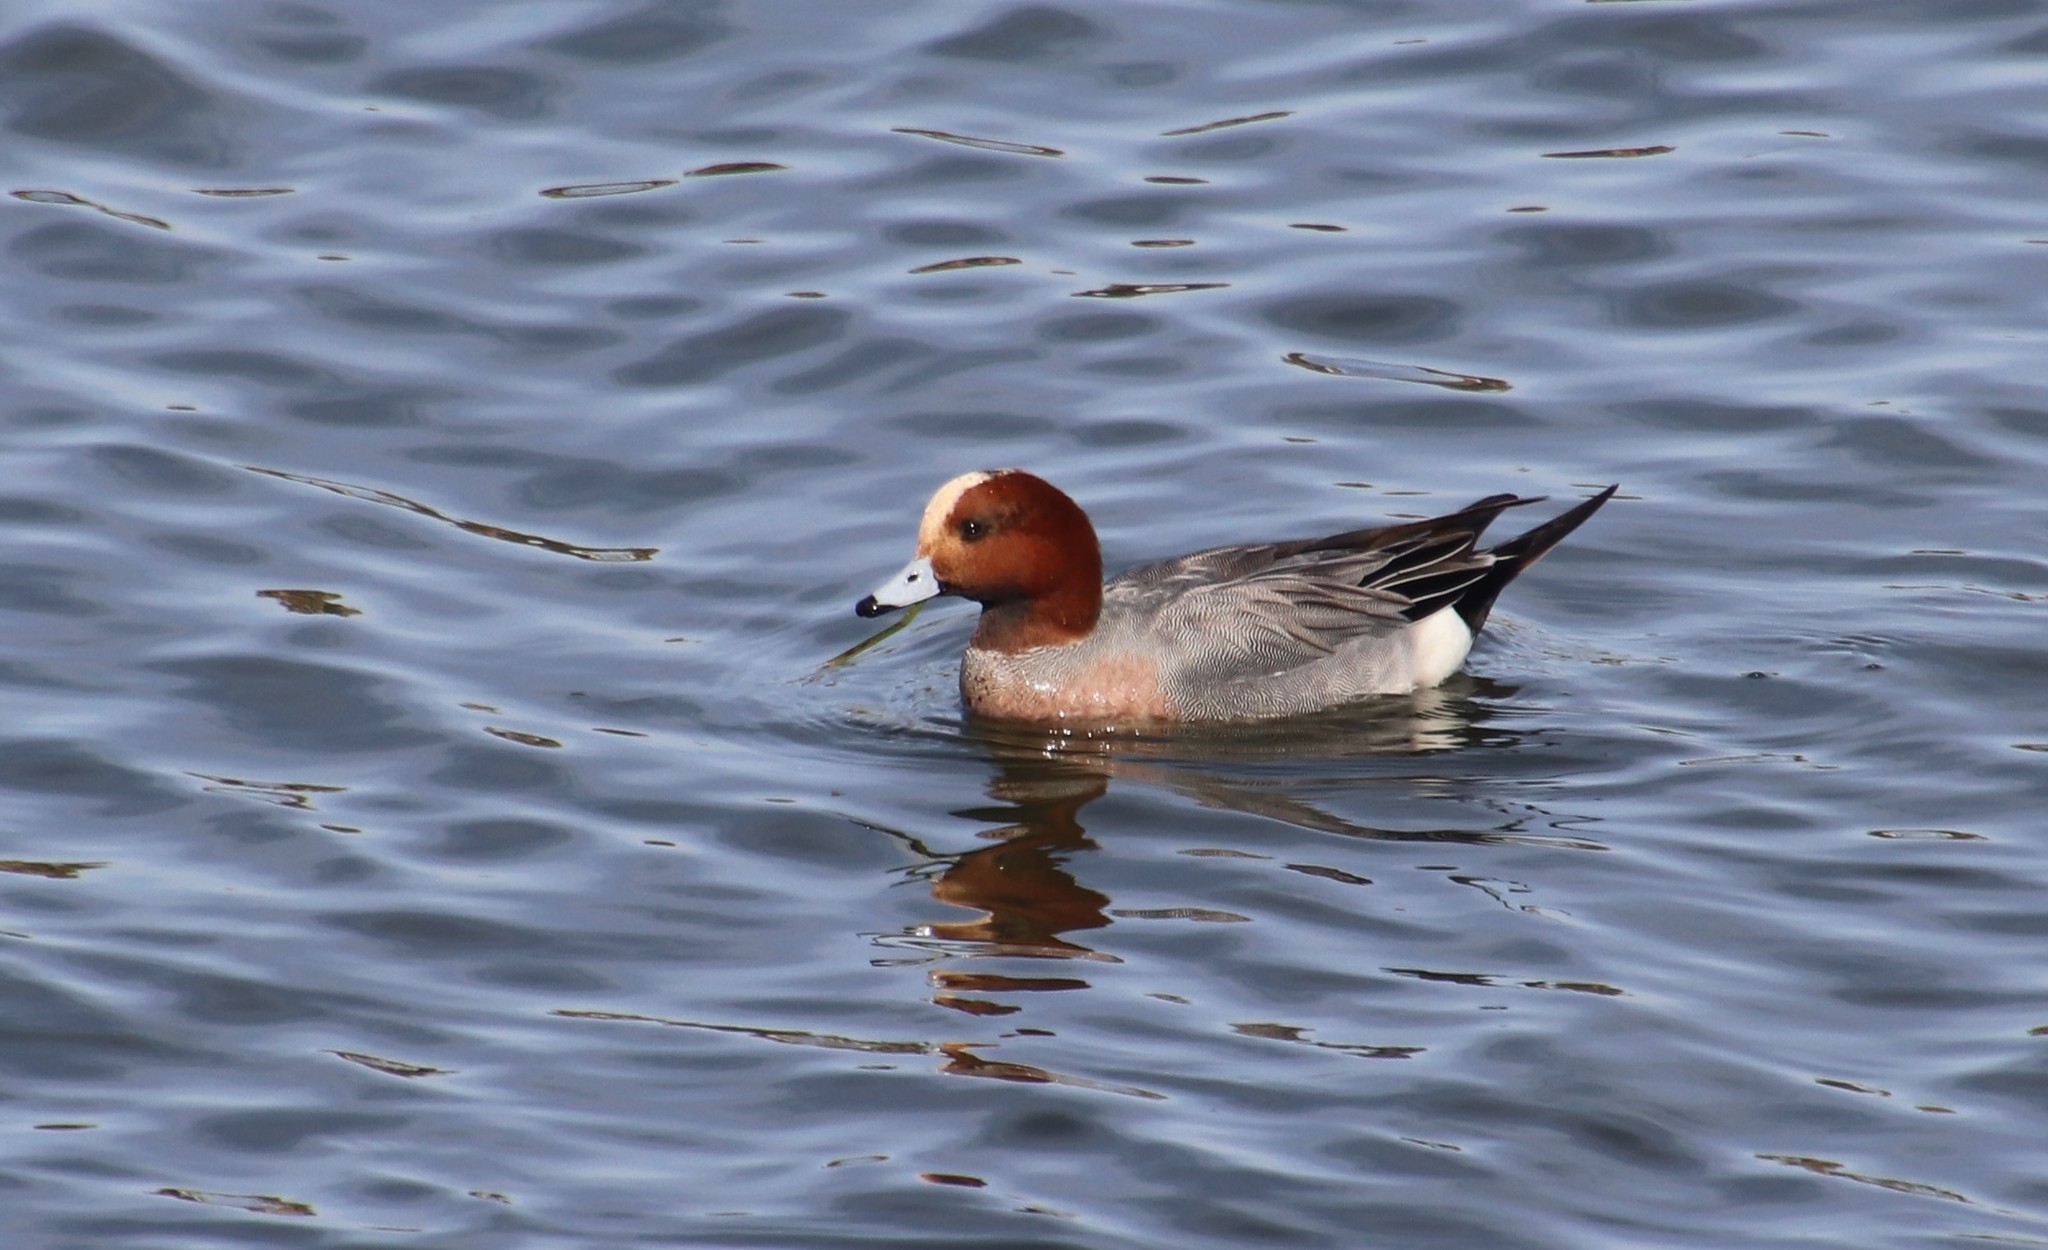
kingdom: Animalia
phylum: Chordata
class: Aves
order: Anseriformes
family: Anatidae
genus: Mareca
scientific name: Mareca penelope
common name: Eurasian wigeon
